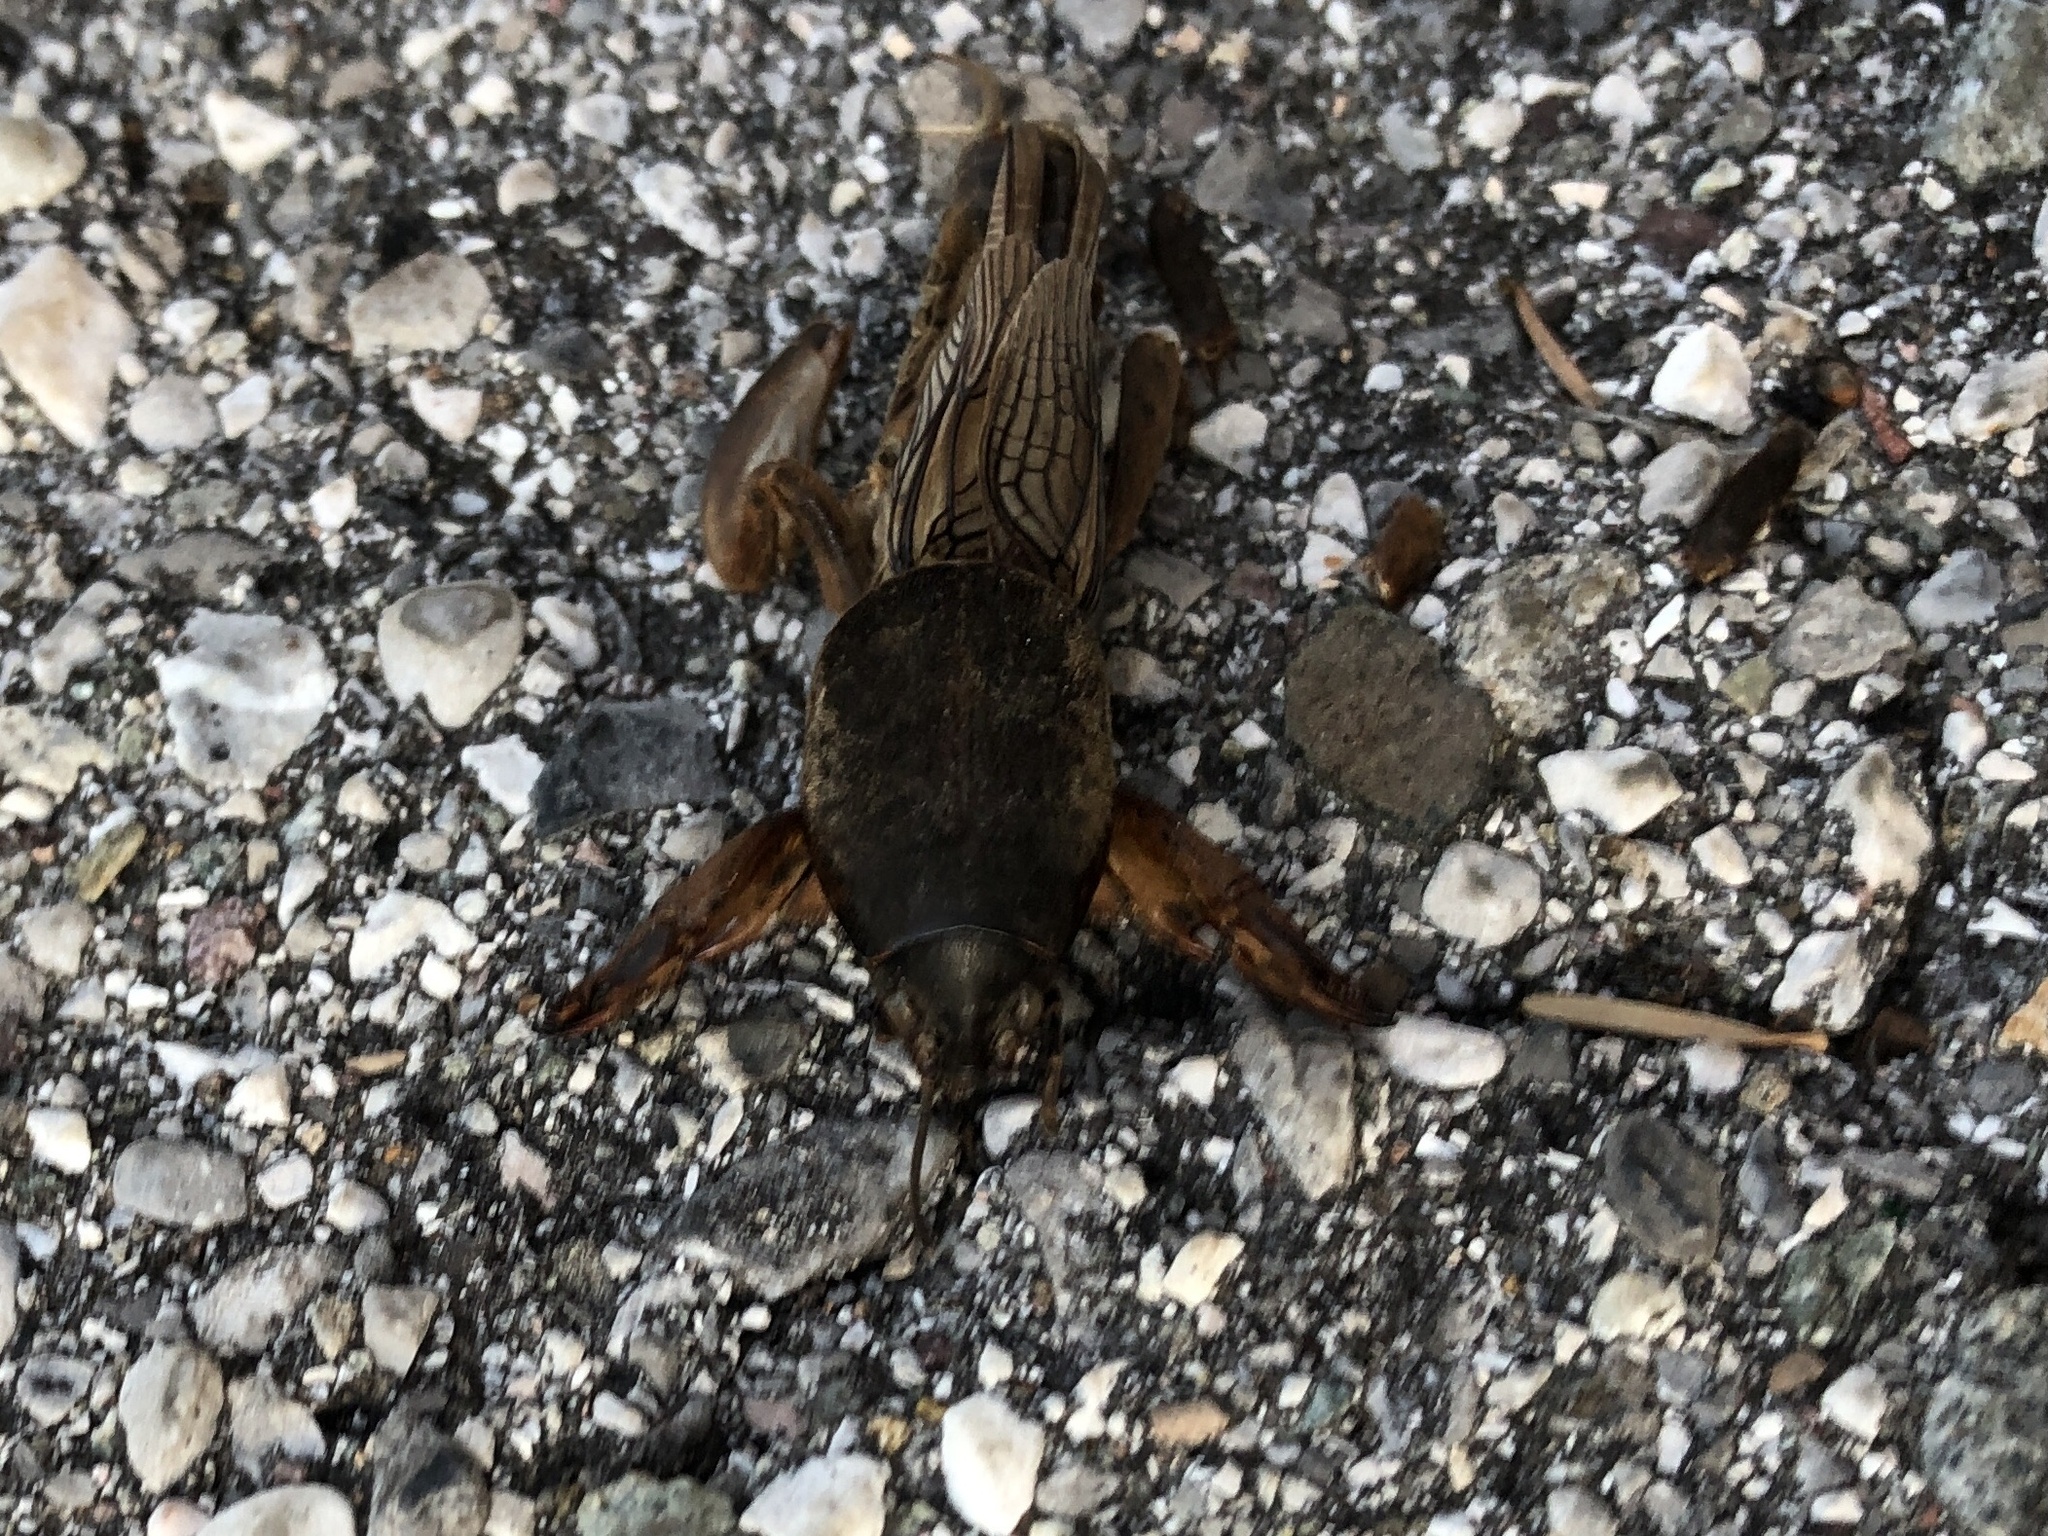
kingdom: Animalia
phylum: Arthropoda
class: Insecta
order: Orthoptera
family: Gryllotalpidae
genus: Gryllotalpa
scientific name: Gryllotalpa gryllotalpa
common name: European mole cricket
